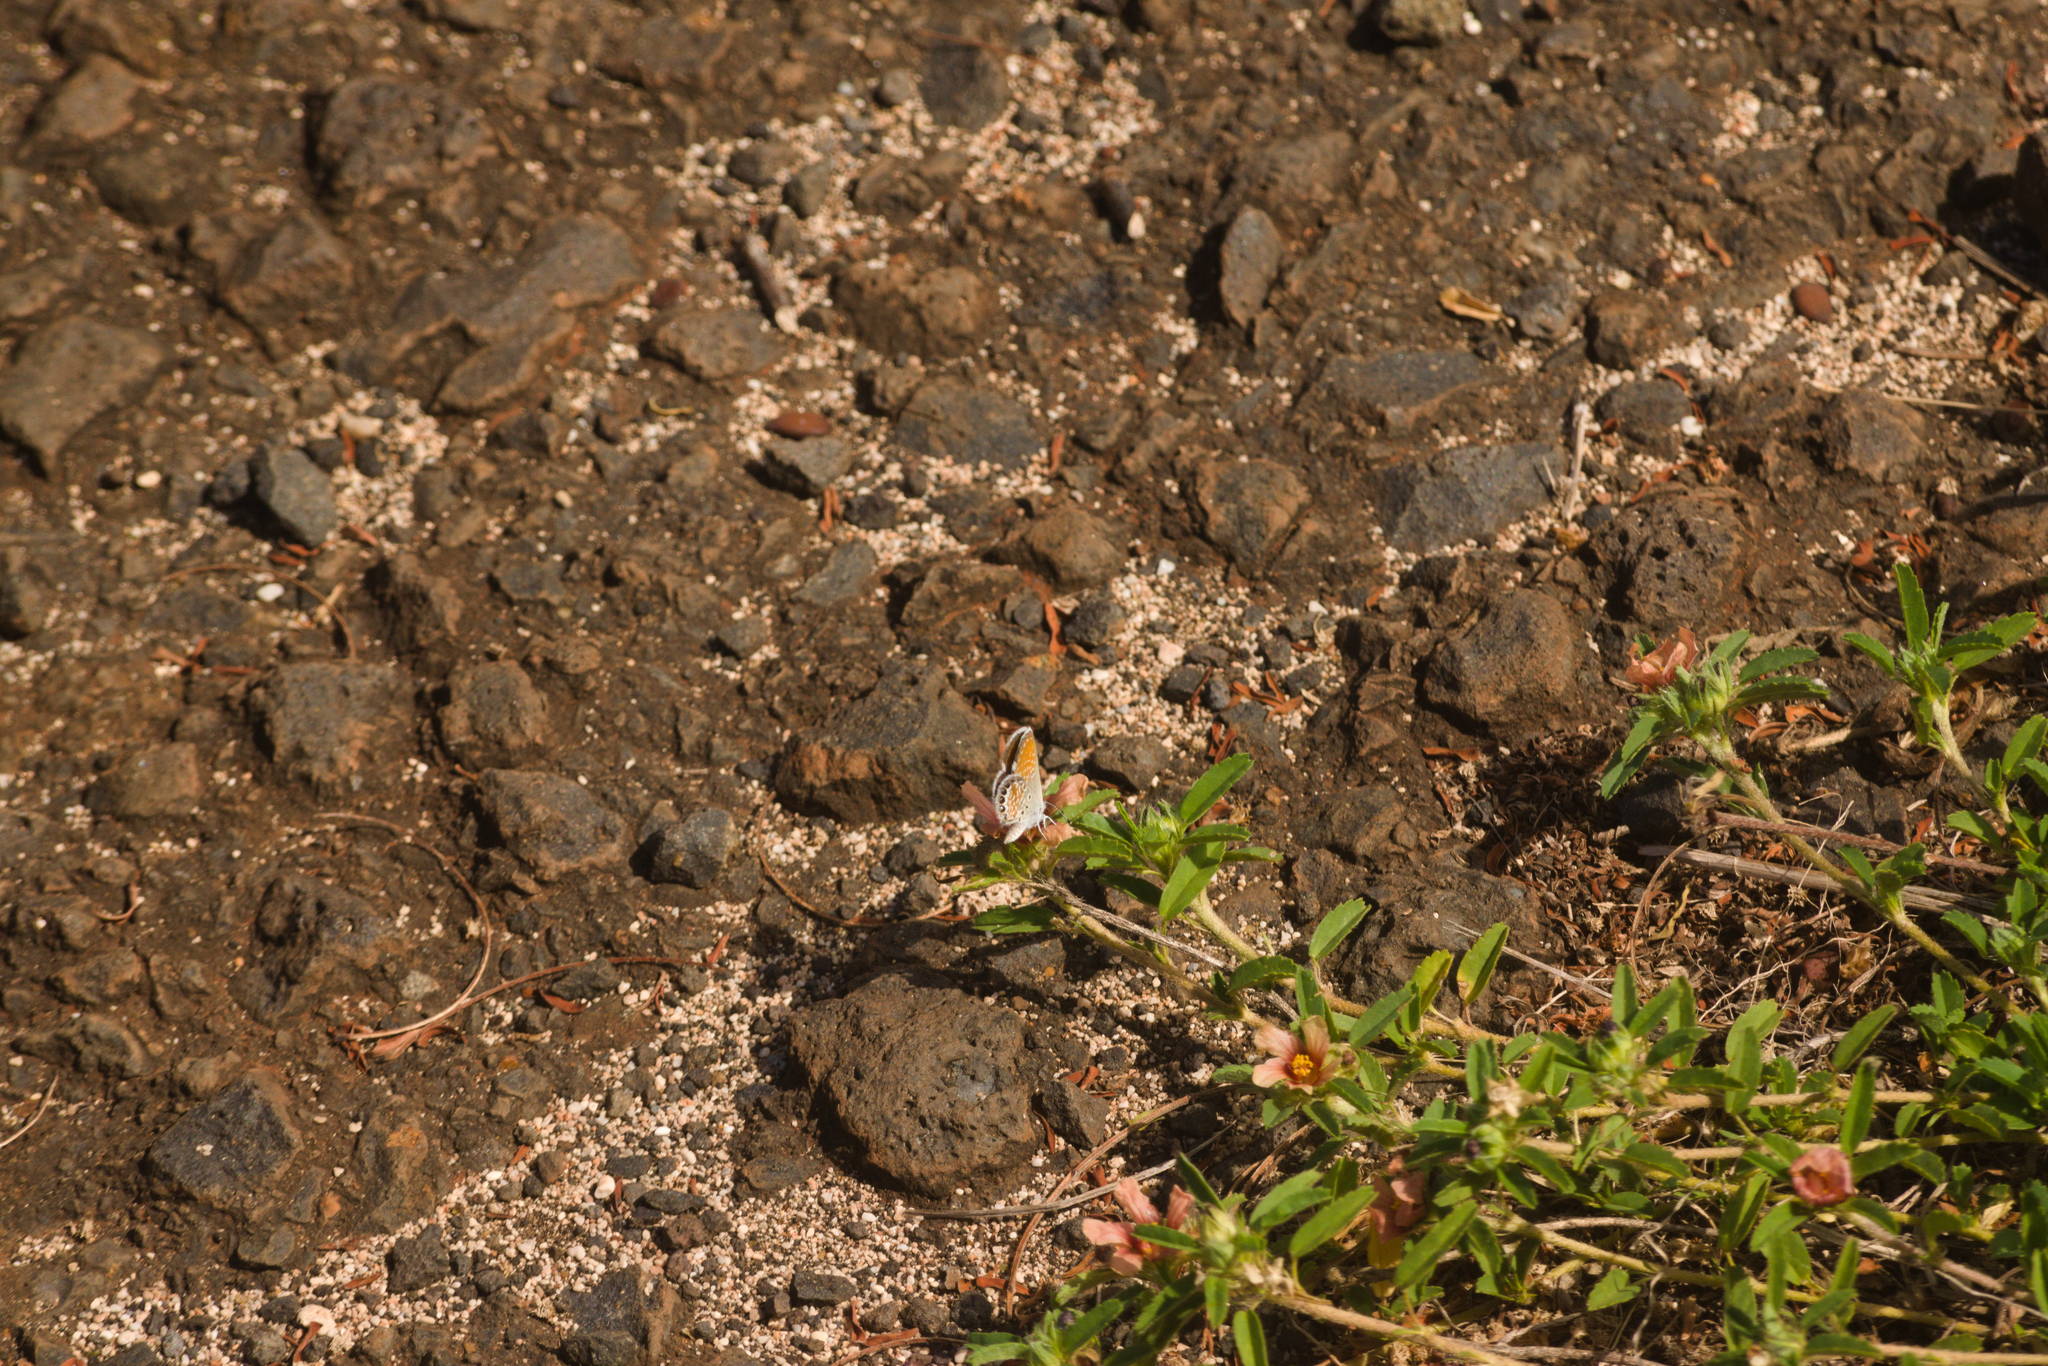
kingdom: Animalia
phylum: Arthropoda
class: Insecta
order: Lepidoptera
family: Lycaenidae
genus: Brephidium
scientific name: Brephidium exilis
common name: Pygmy blue
